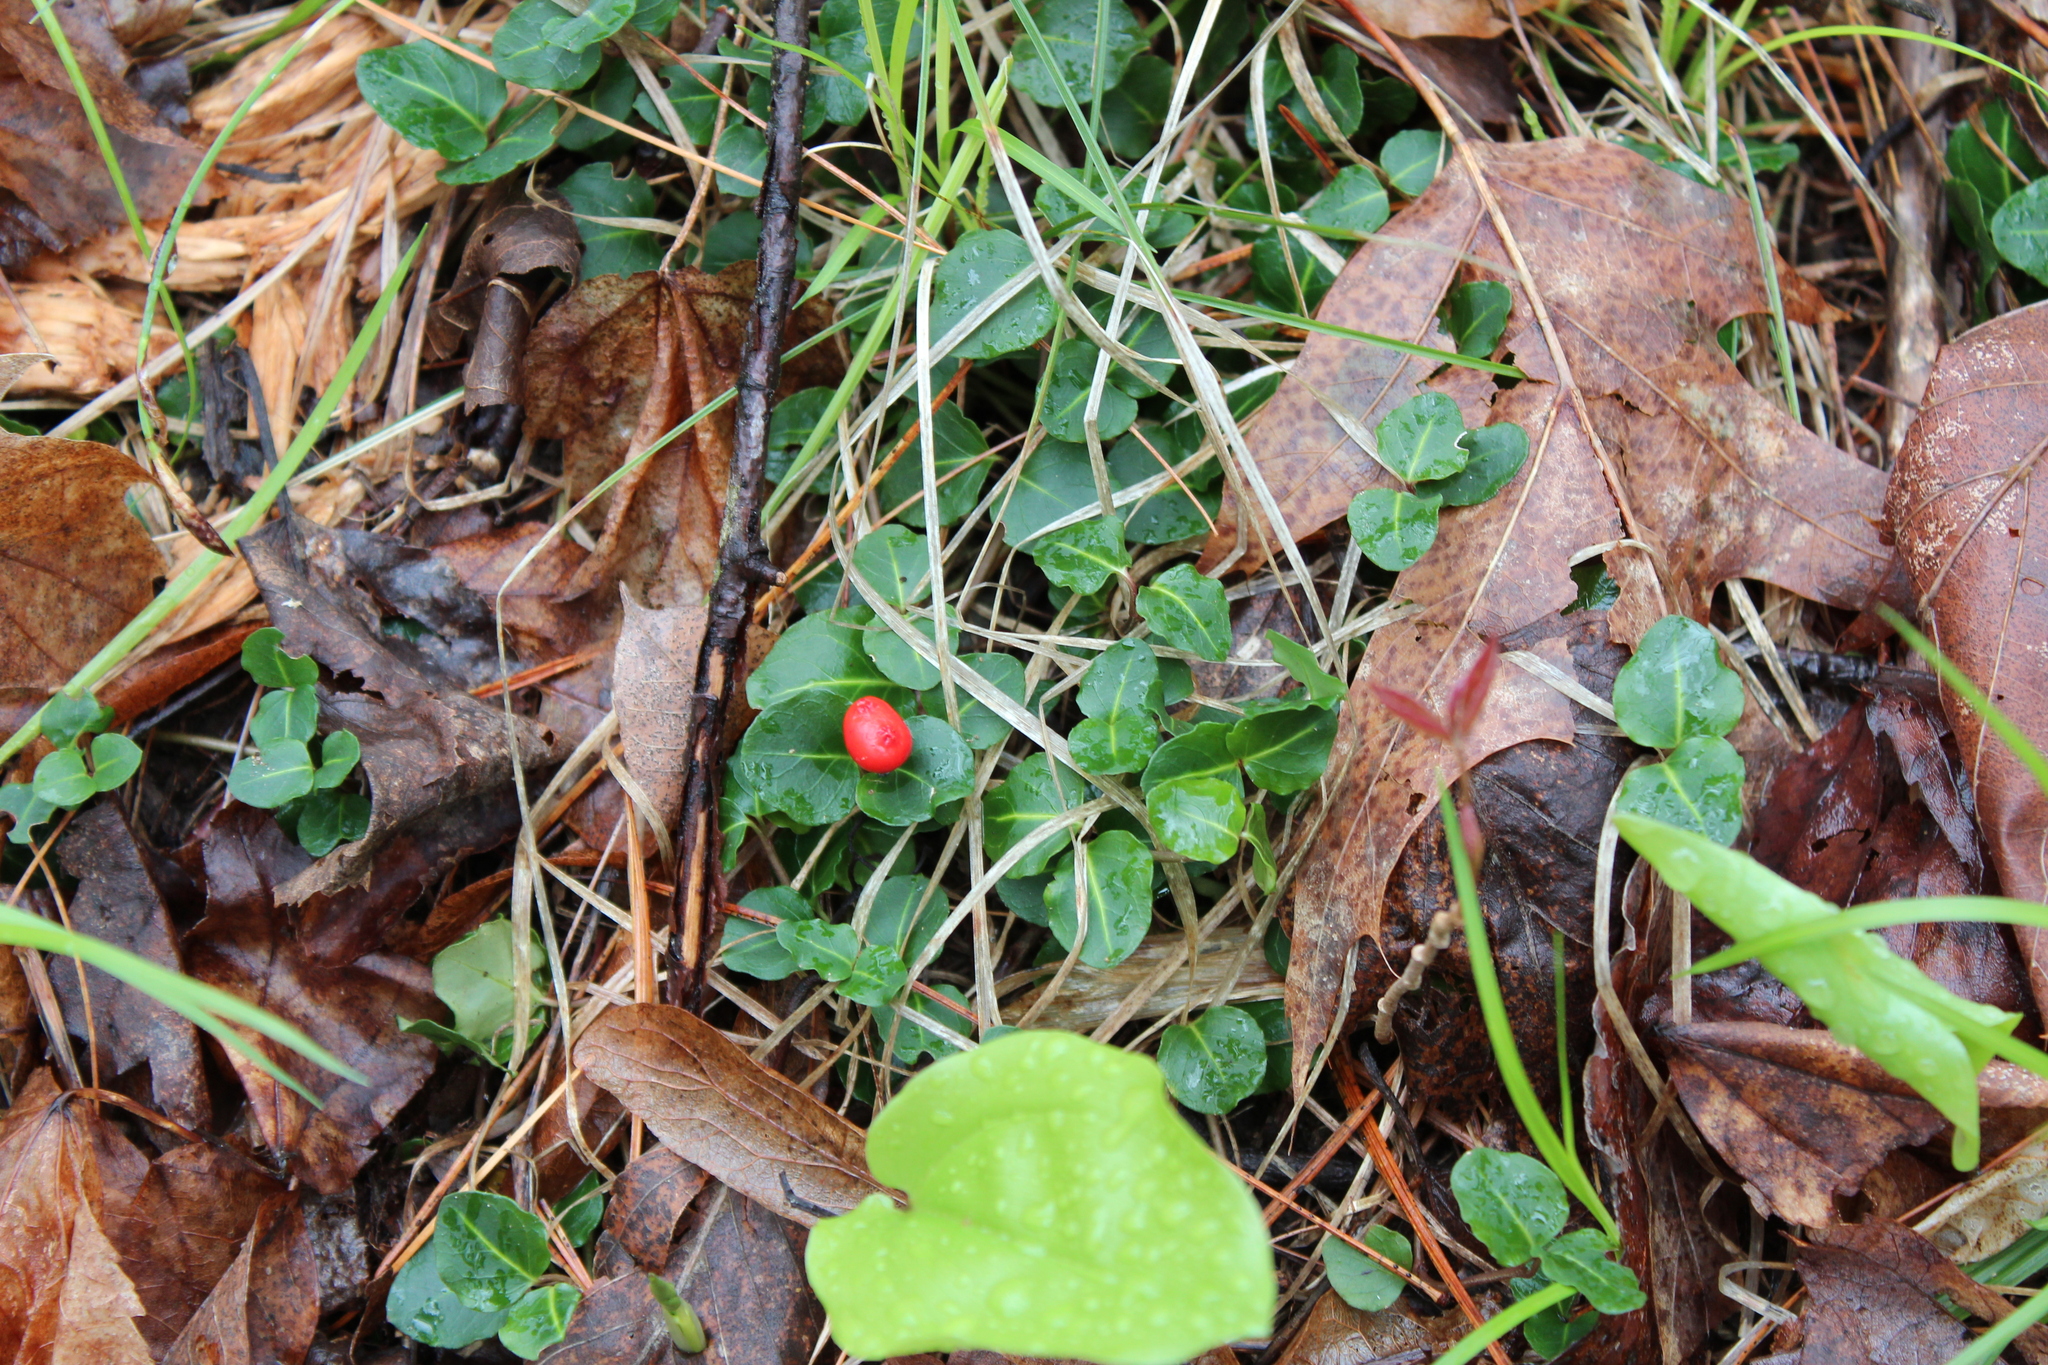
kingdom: Plantae
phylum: Tracheophyta
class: Magnoliopsida
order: Gentianales
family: Rubiaceae
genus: Mitchella
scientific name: Mitchella repens
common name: Partridge-berry
